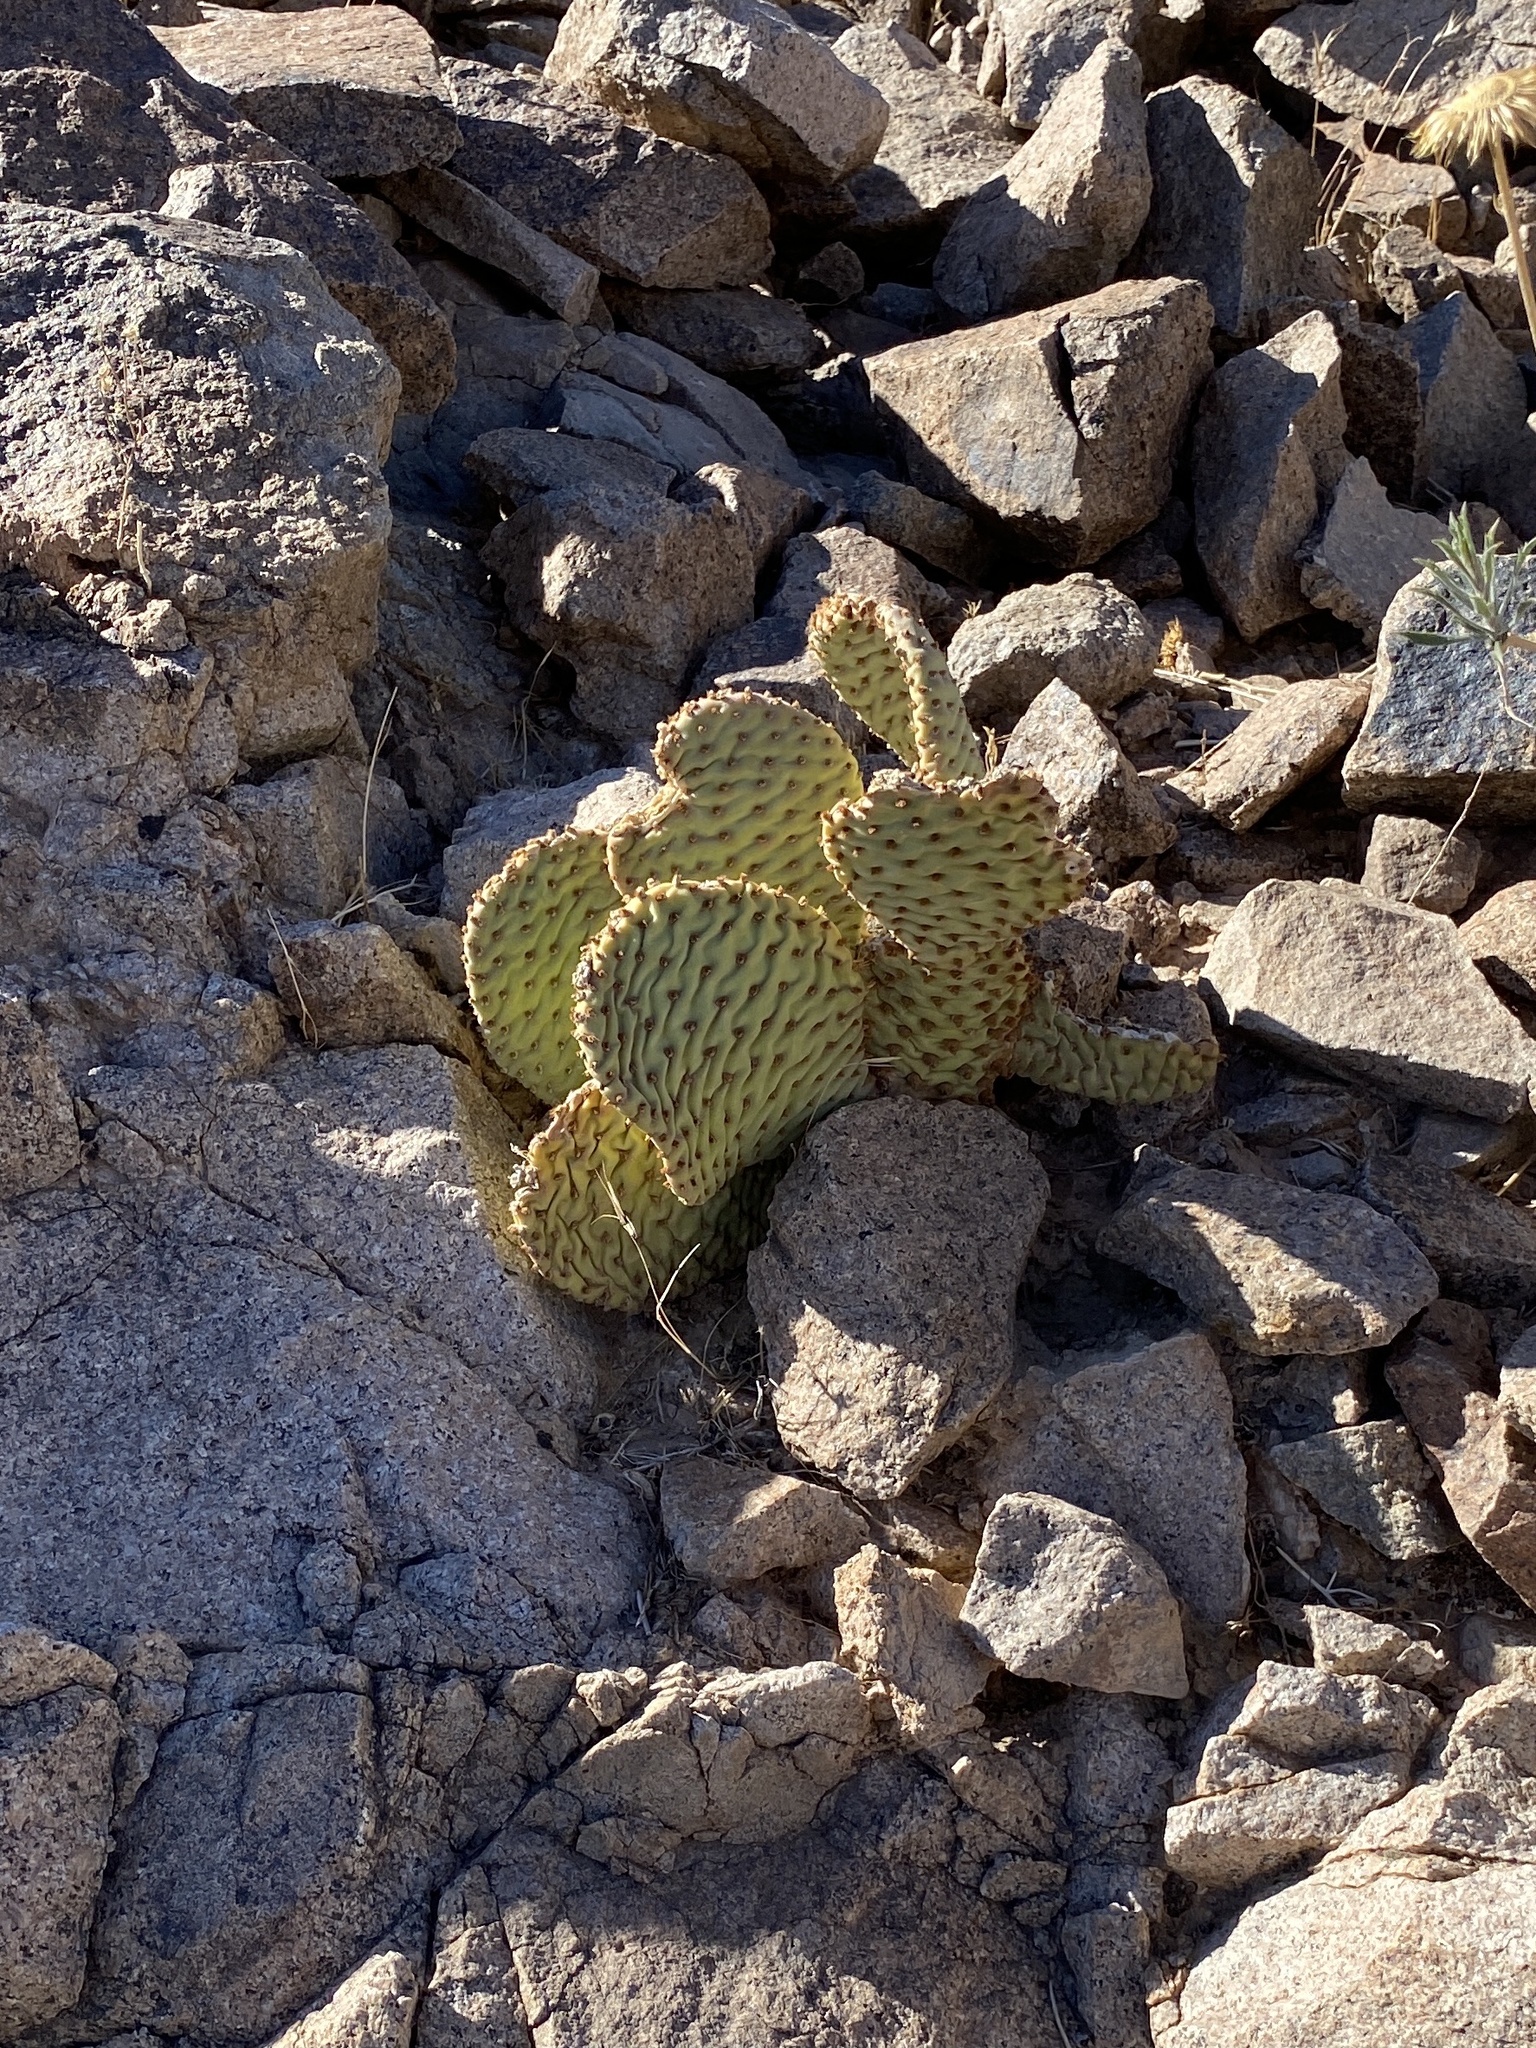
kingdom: Plantae
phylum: Tracheophyta
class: Magnoliopsida
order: Caryophyllales
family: Cactaceae
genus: Opuntia
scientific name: Opuntia basilaris
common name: Beavertail prickly-pear
